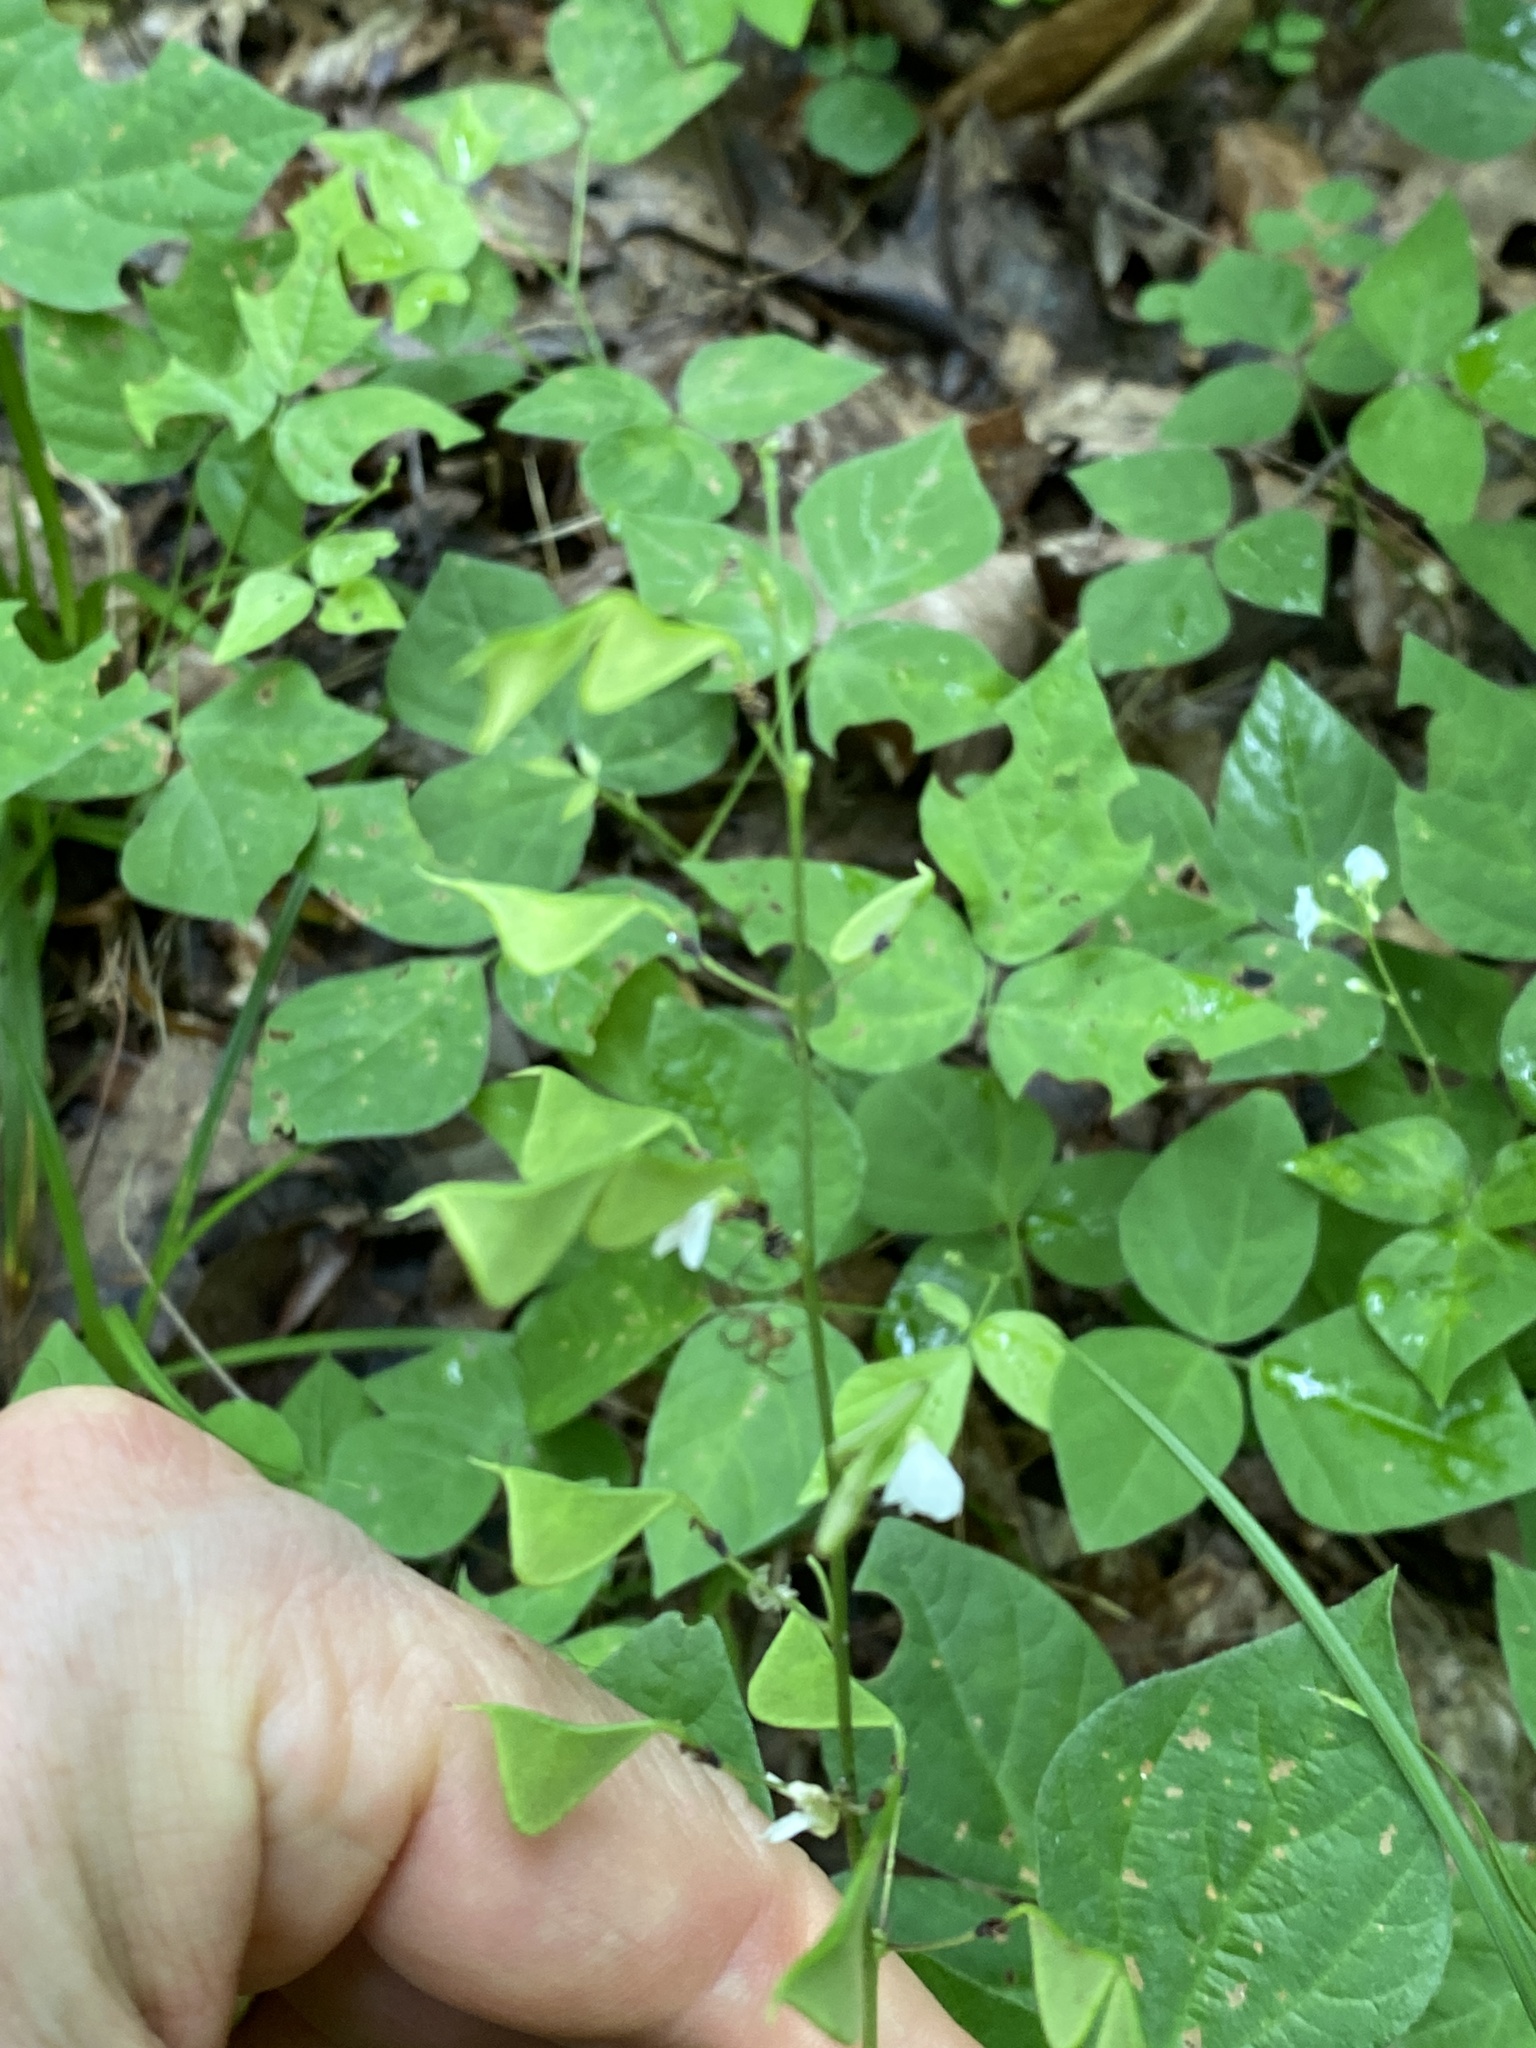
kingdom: Plantae
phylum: Tracheophyta
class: Magnoliopsida
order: Fabales
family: Fabaceae
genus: Hylodesmum
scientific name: Hylodesmum pauciflorum
